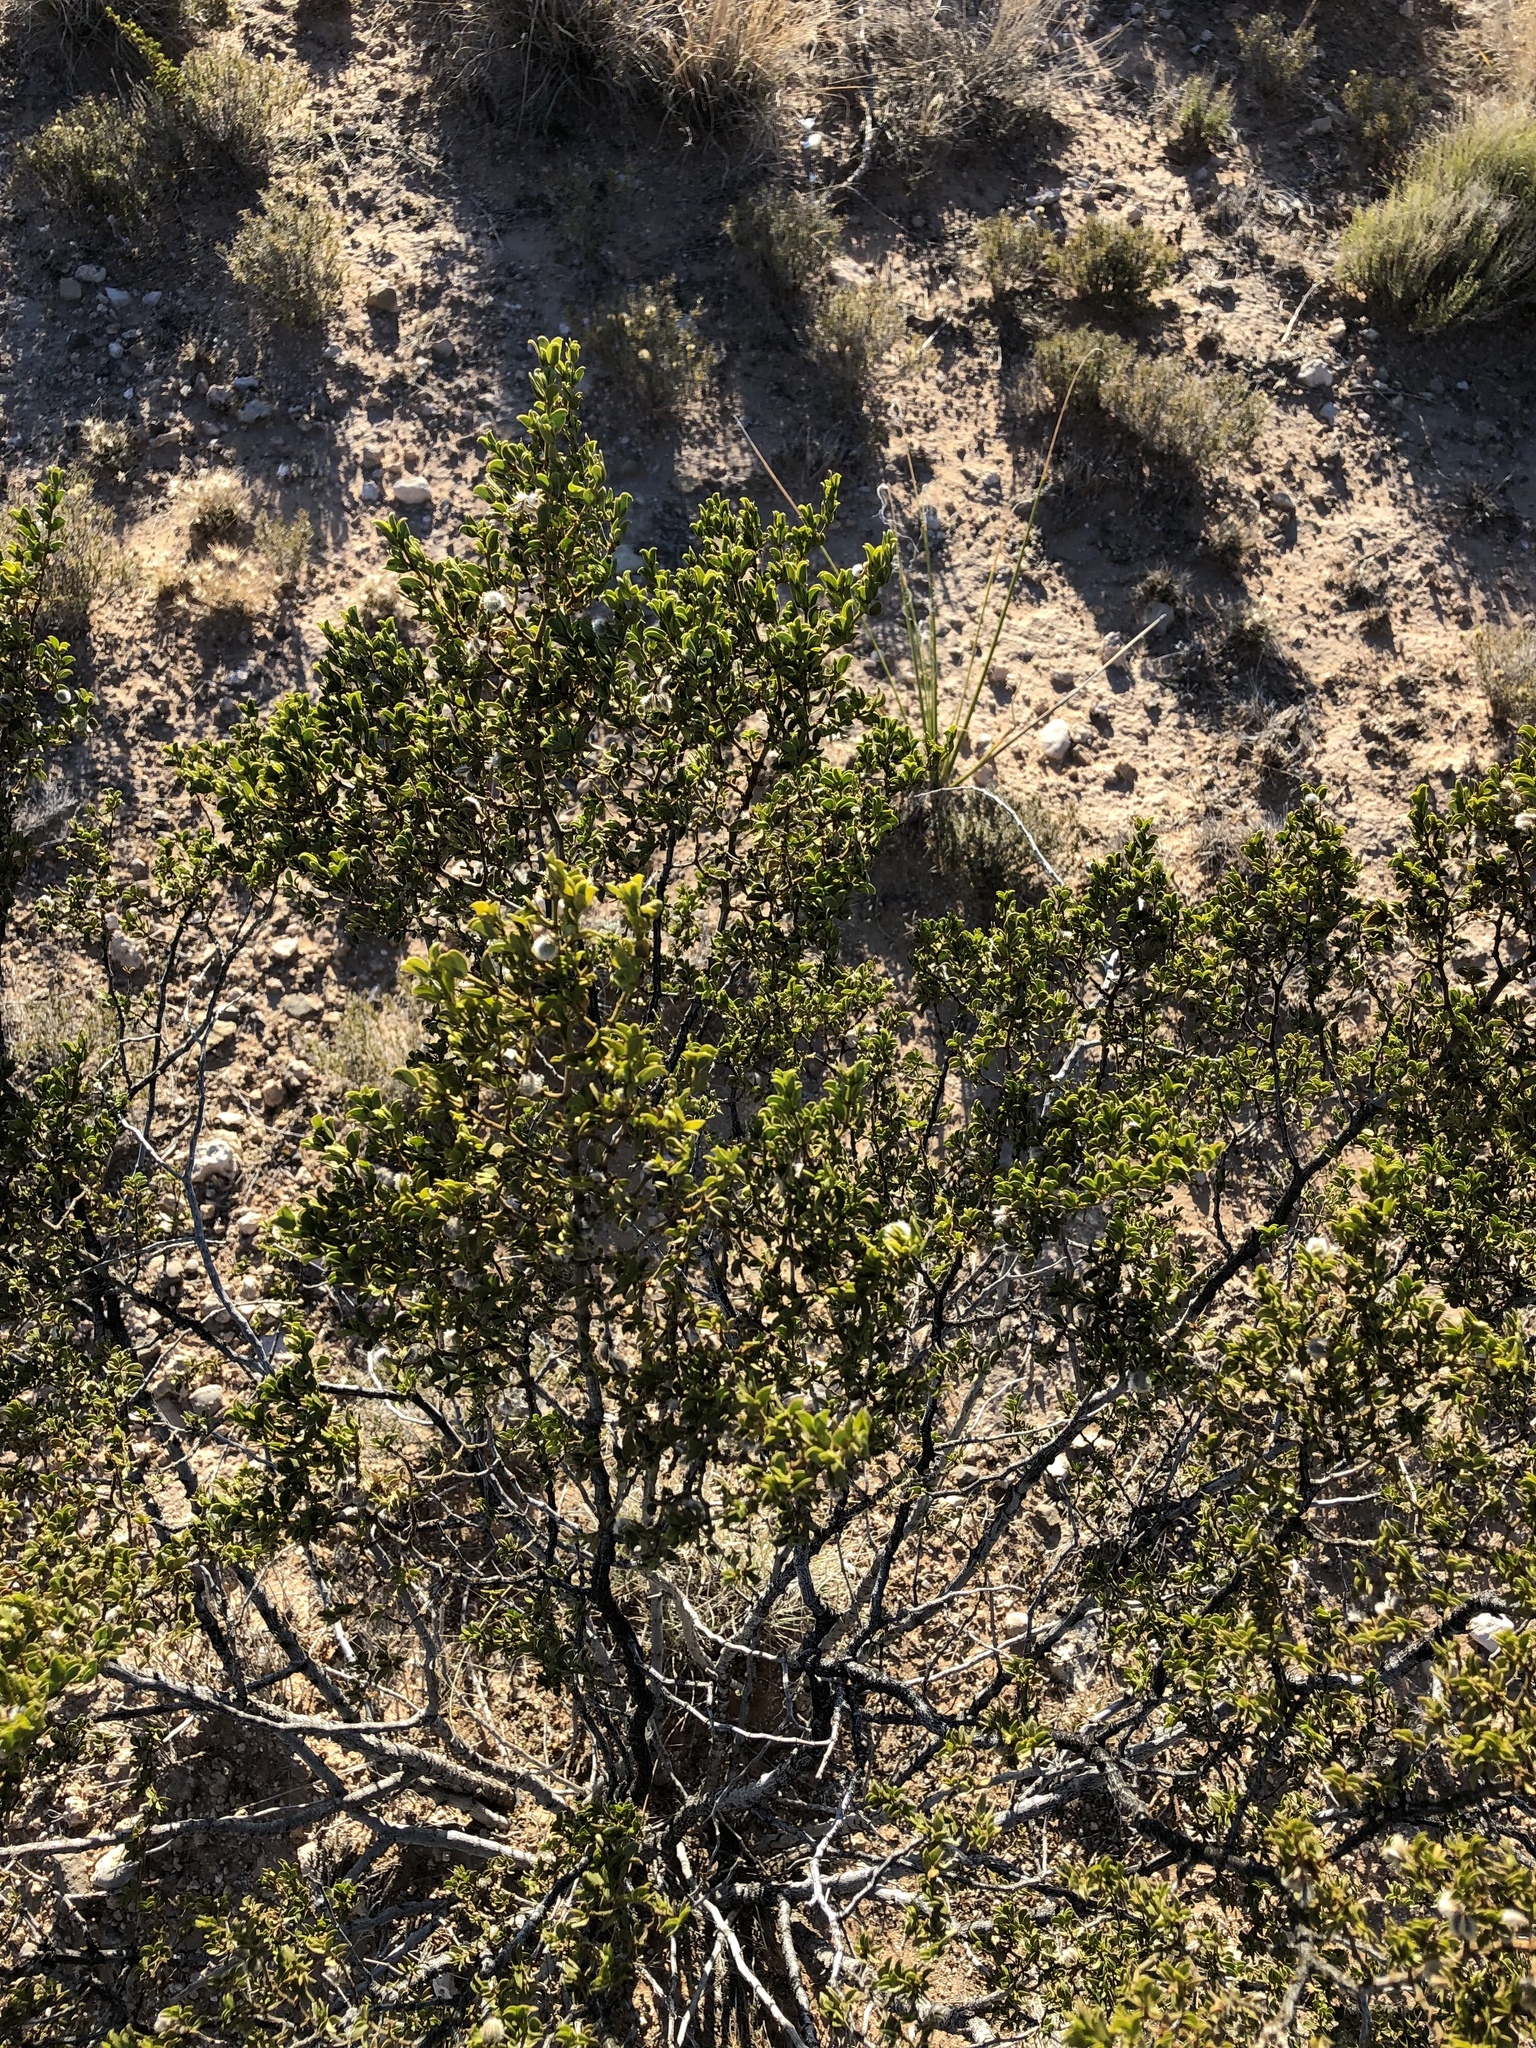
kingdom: Plantae
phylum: Tracheophyta
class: Magnoliopsida
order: Zygophyllales
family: Zygophyllaceae
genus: Larrea
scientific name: Larrea tridentata
